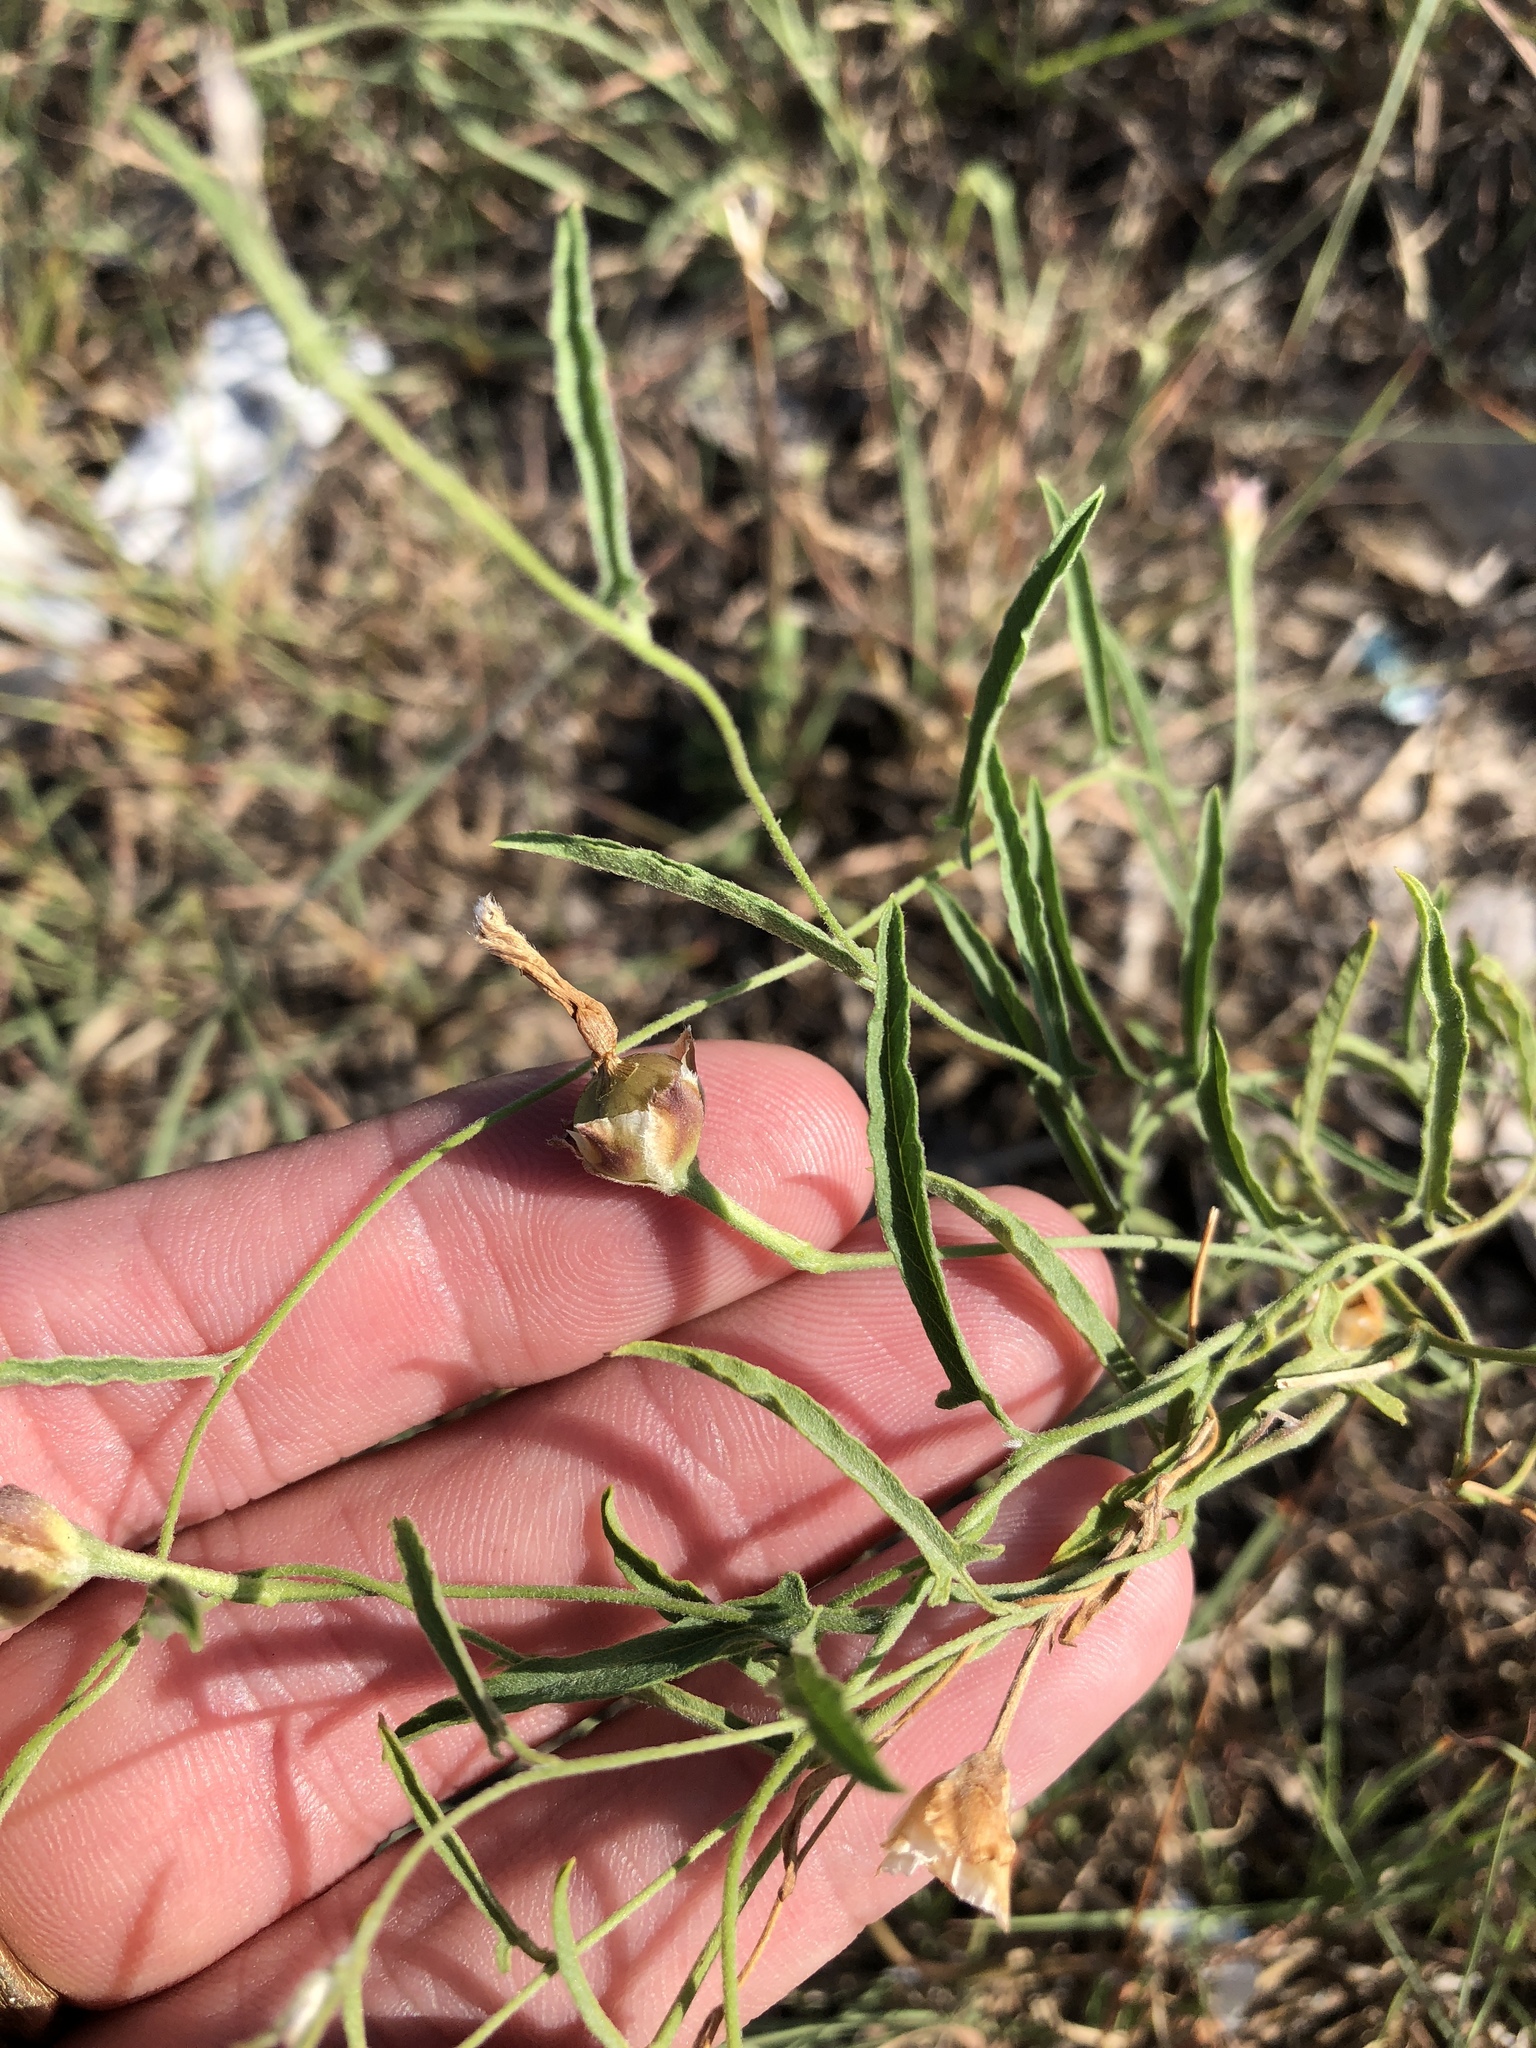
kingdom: Plantae
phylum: Tracheophyta
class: Magnoliopsida
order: Solanales
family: Convolvulaceae
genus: Convolvulus
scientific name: Convolvulus equitans
